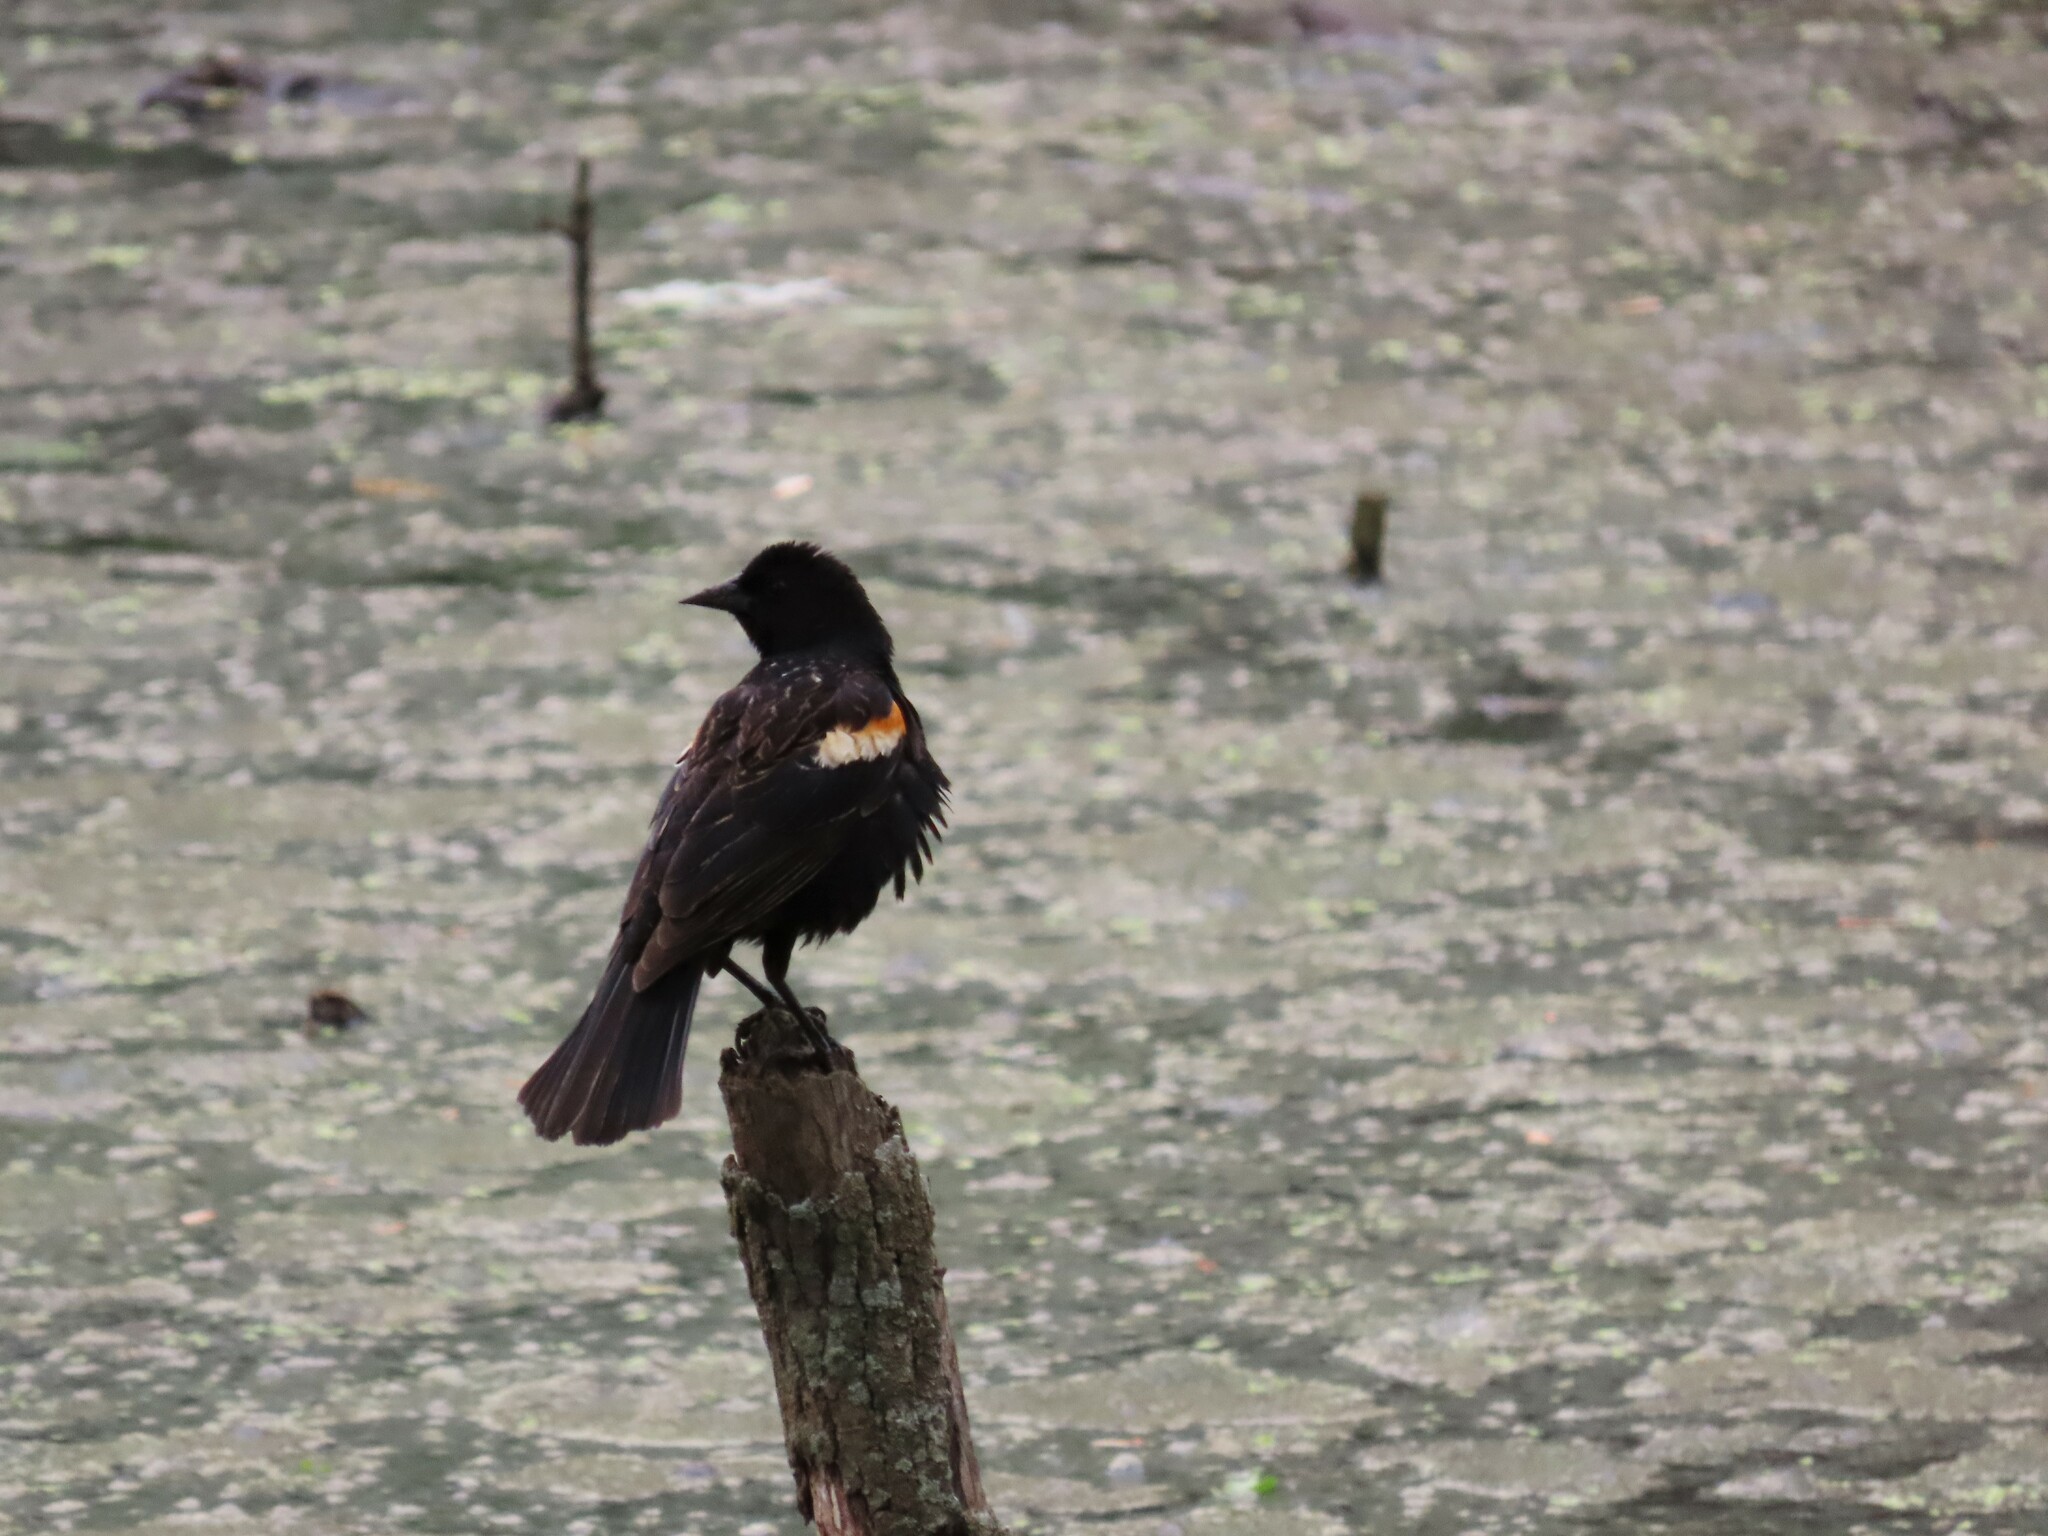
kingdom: Animalia
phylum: Chordata
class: Aves
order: Passeriformes
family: Icteridae
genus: Agelaius
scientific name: Agelaius phoeniceus
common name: Red-winged blackbird
